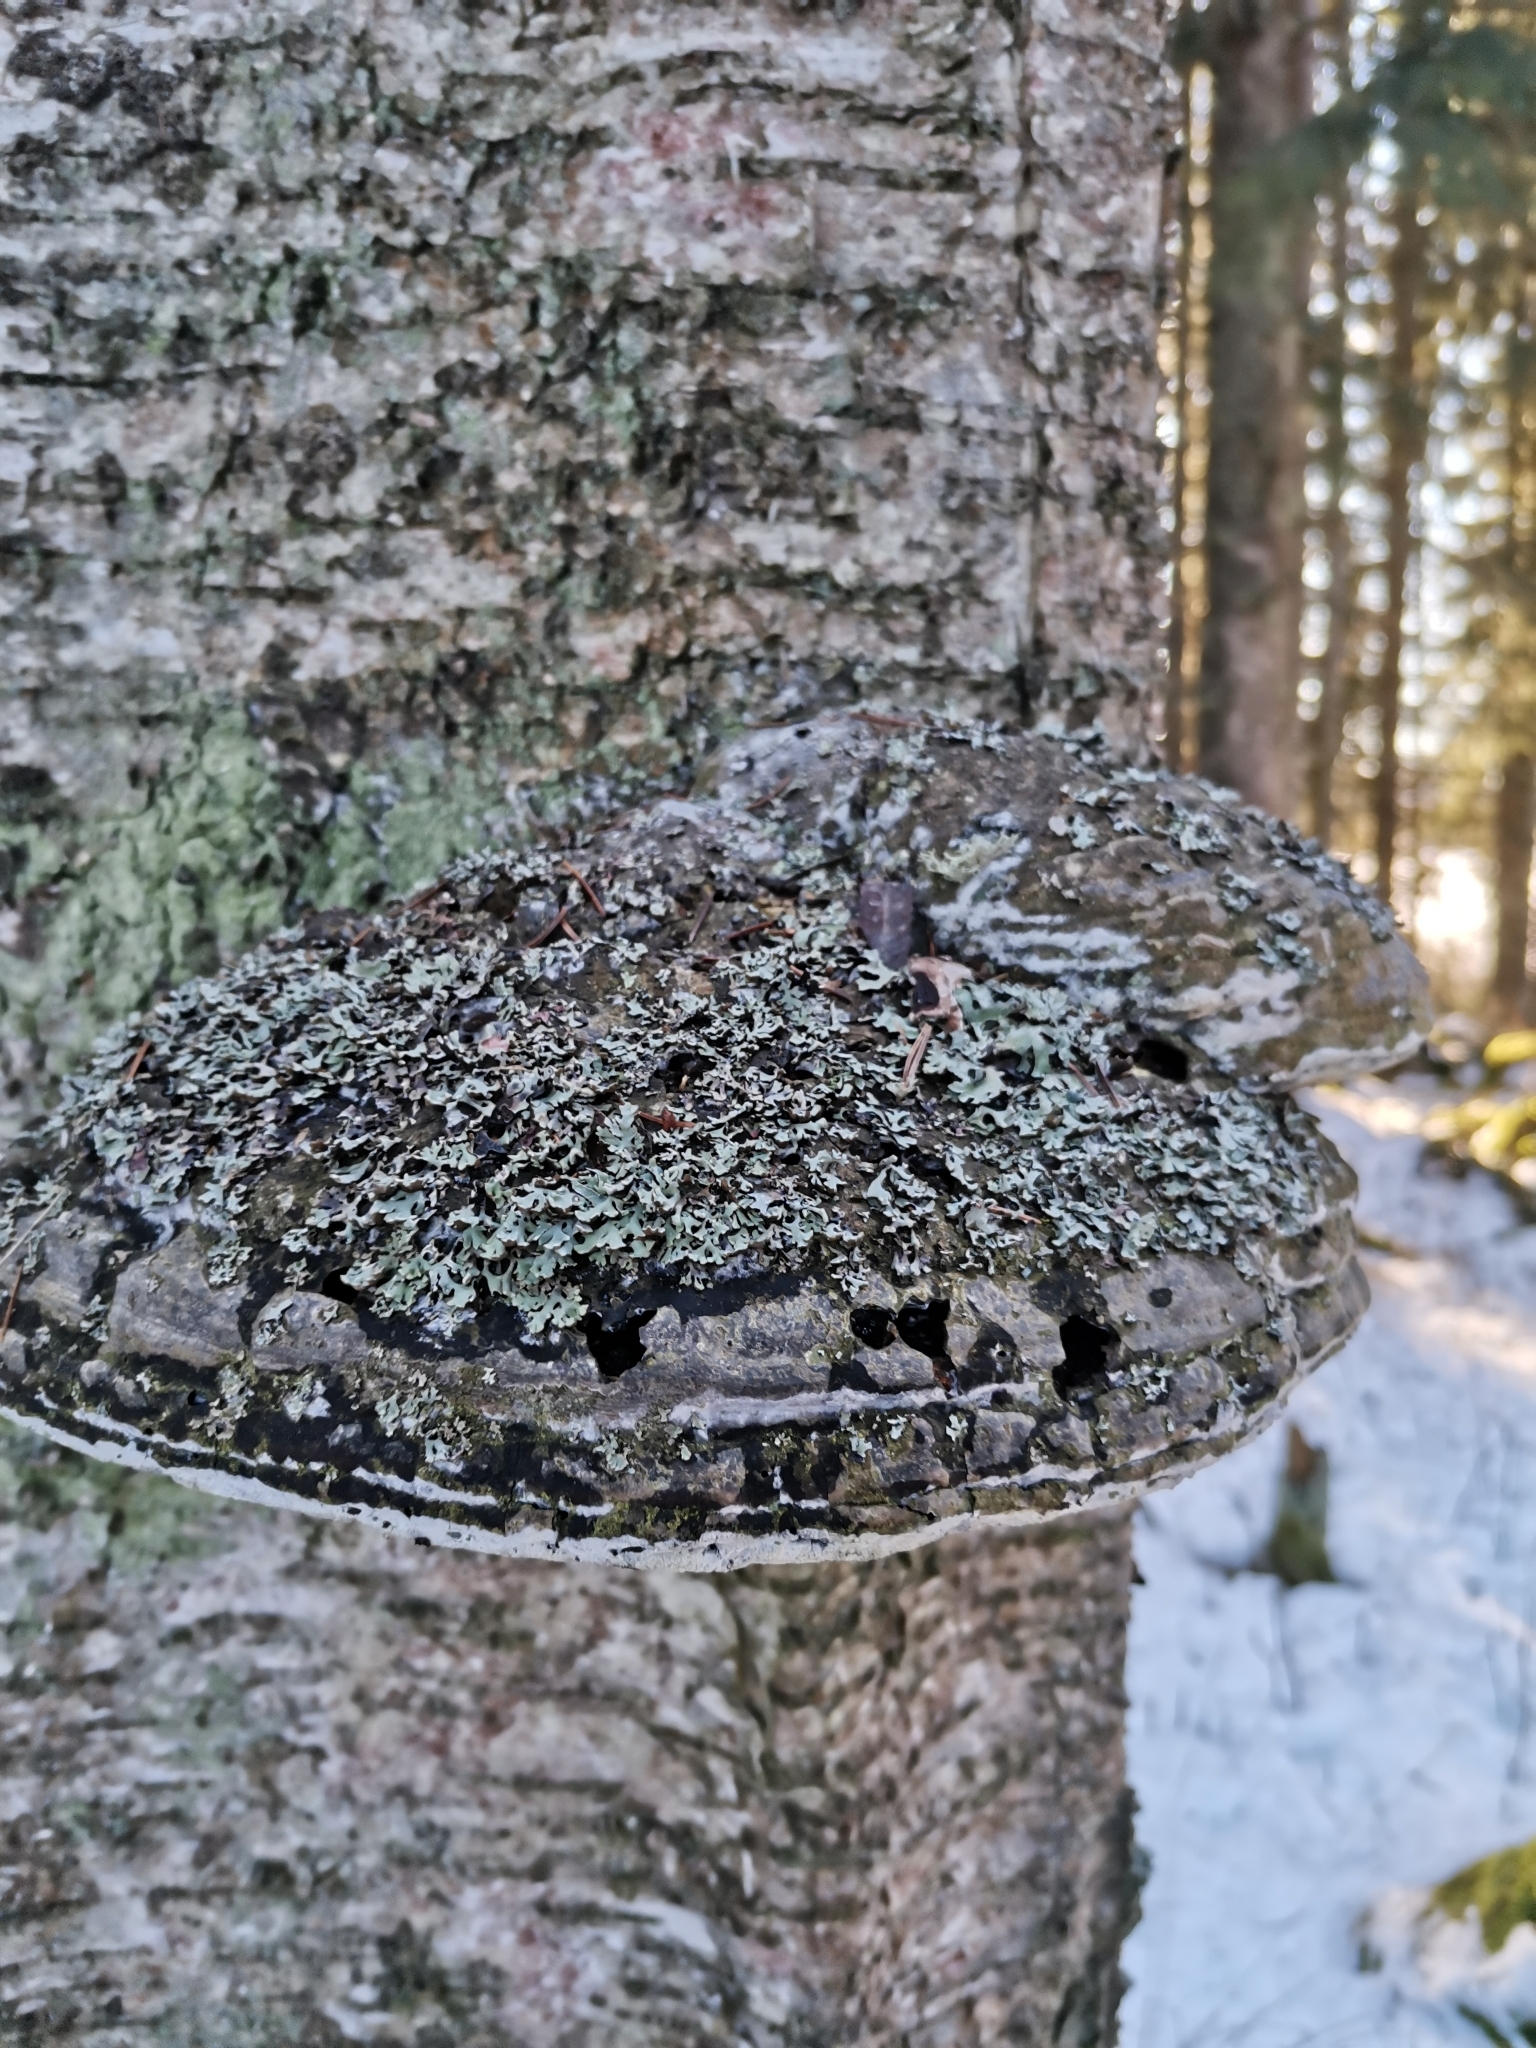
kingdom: Fungi
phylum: Basidiomycota
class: Agaricomycetes
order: Polyporales
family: Polyporaceae
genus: Fomes
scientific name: Fomes fomentarius
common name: Hoof fungus
